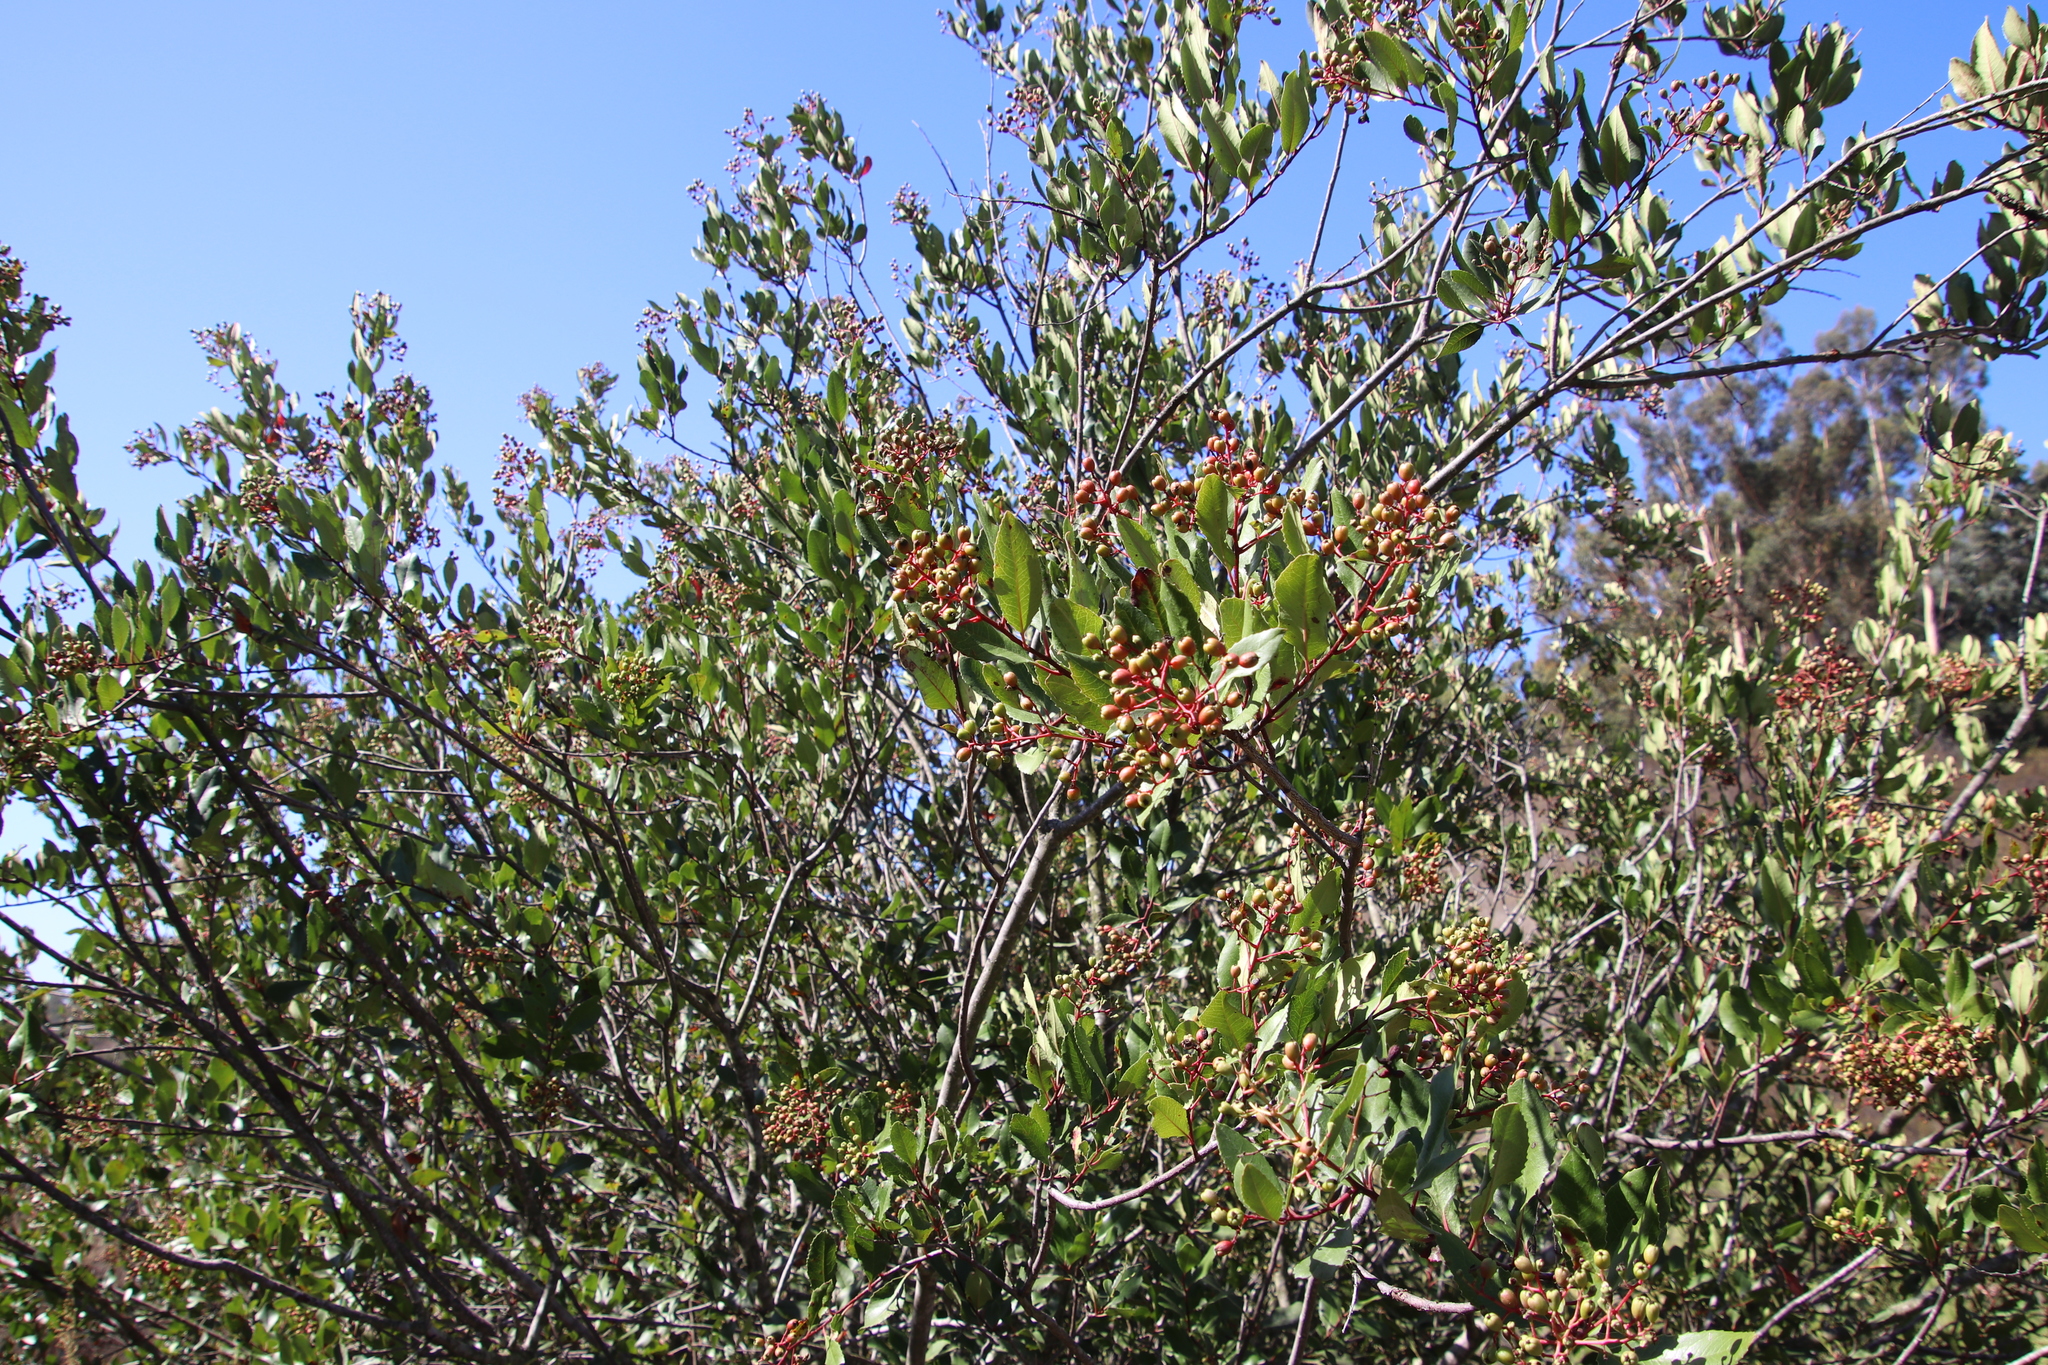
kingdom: Plantae
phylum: Tracheophyta
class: Magnoliopsida
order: Rosales
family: Rosaceae
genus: Heteromeles
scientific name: Heteromeles arbutifolia
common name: California-holly
